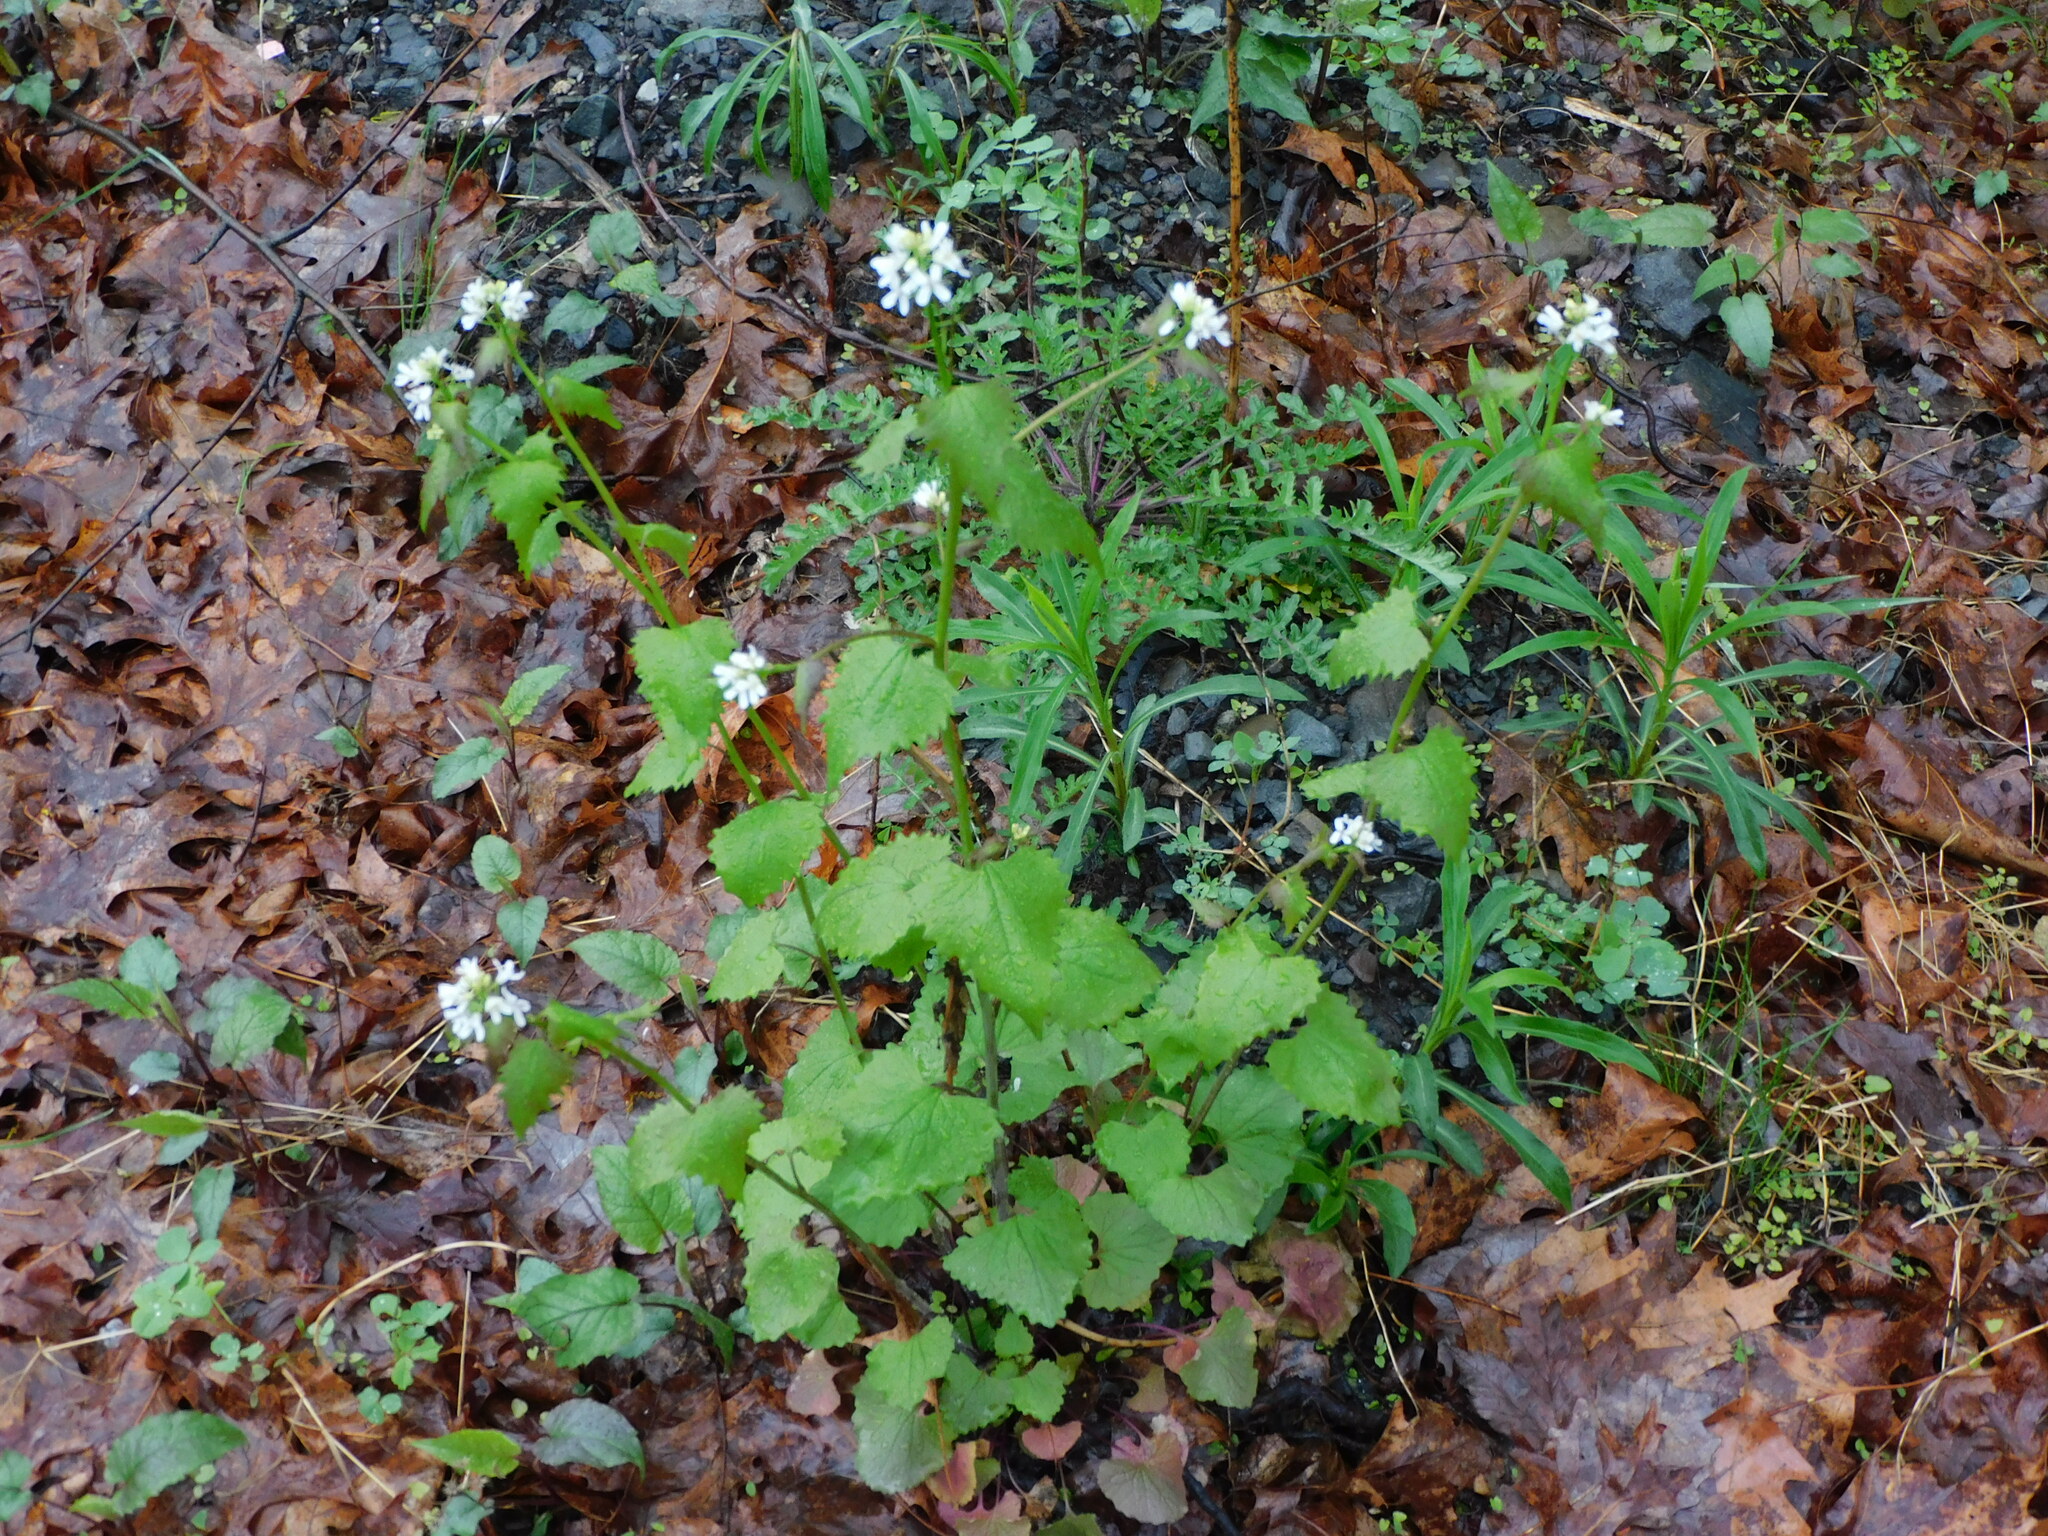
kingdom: Plantae
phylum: Tracheophyta
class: Magnoliopsida
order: Brassicales
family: Brassicaceae
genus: Alliaria
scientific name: Alliaria petiolata
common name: Garlic mustard
